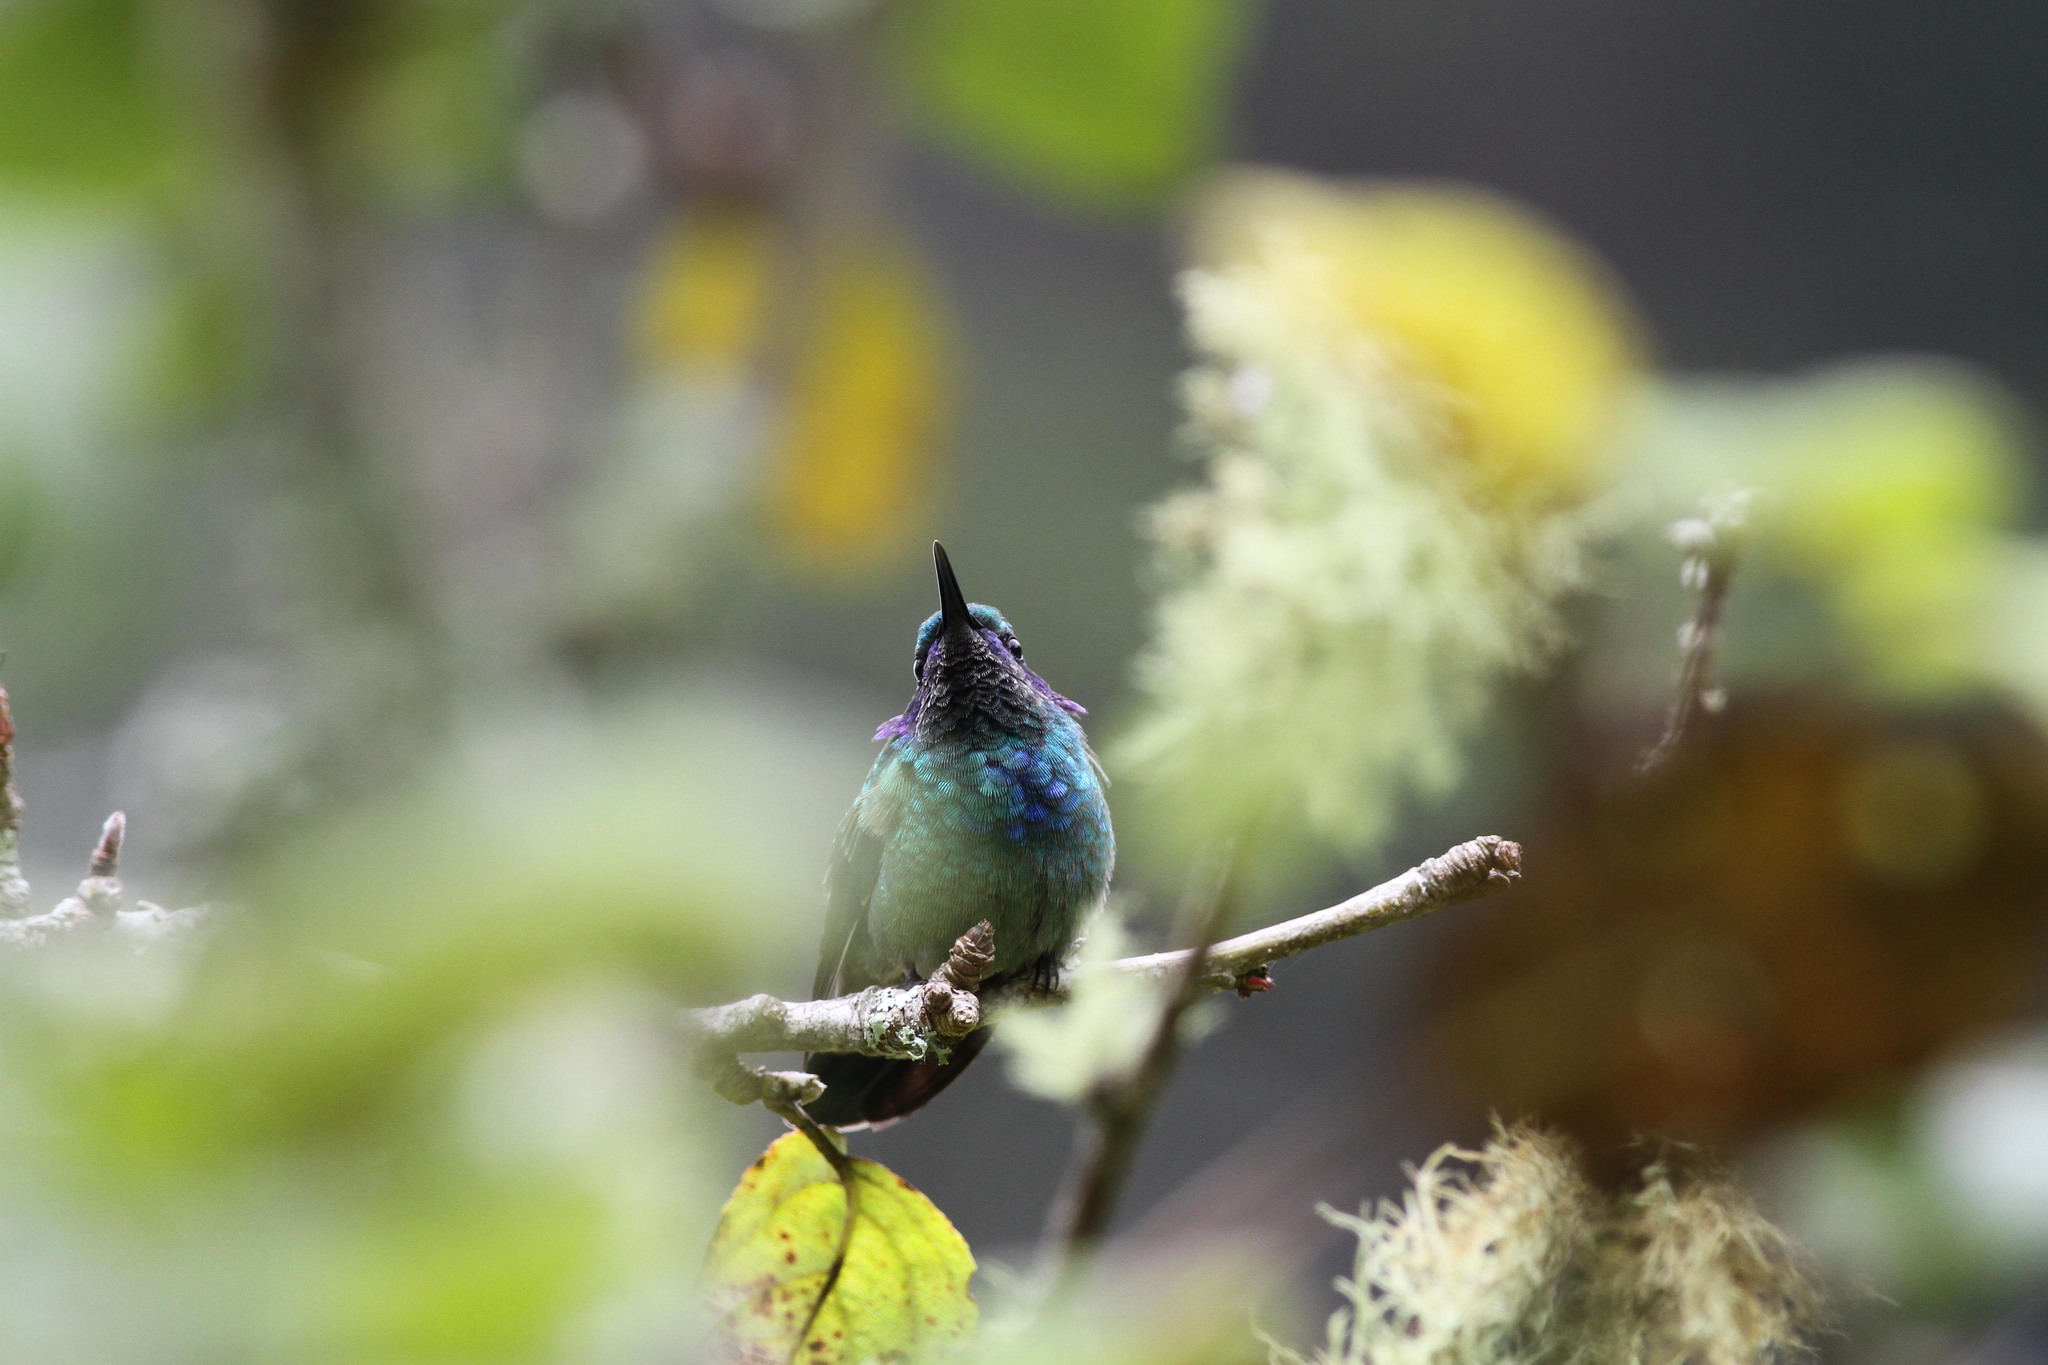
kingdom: Animalia
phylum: Chordata
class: Aves
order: Apodiformes
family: Trochilidae
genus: Colibri
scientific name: Colibri thalassinus
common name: Green violetear
